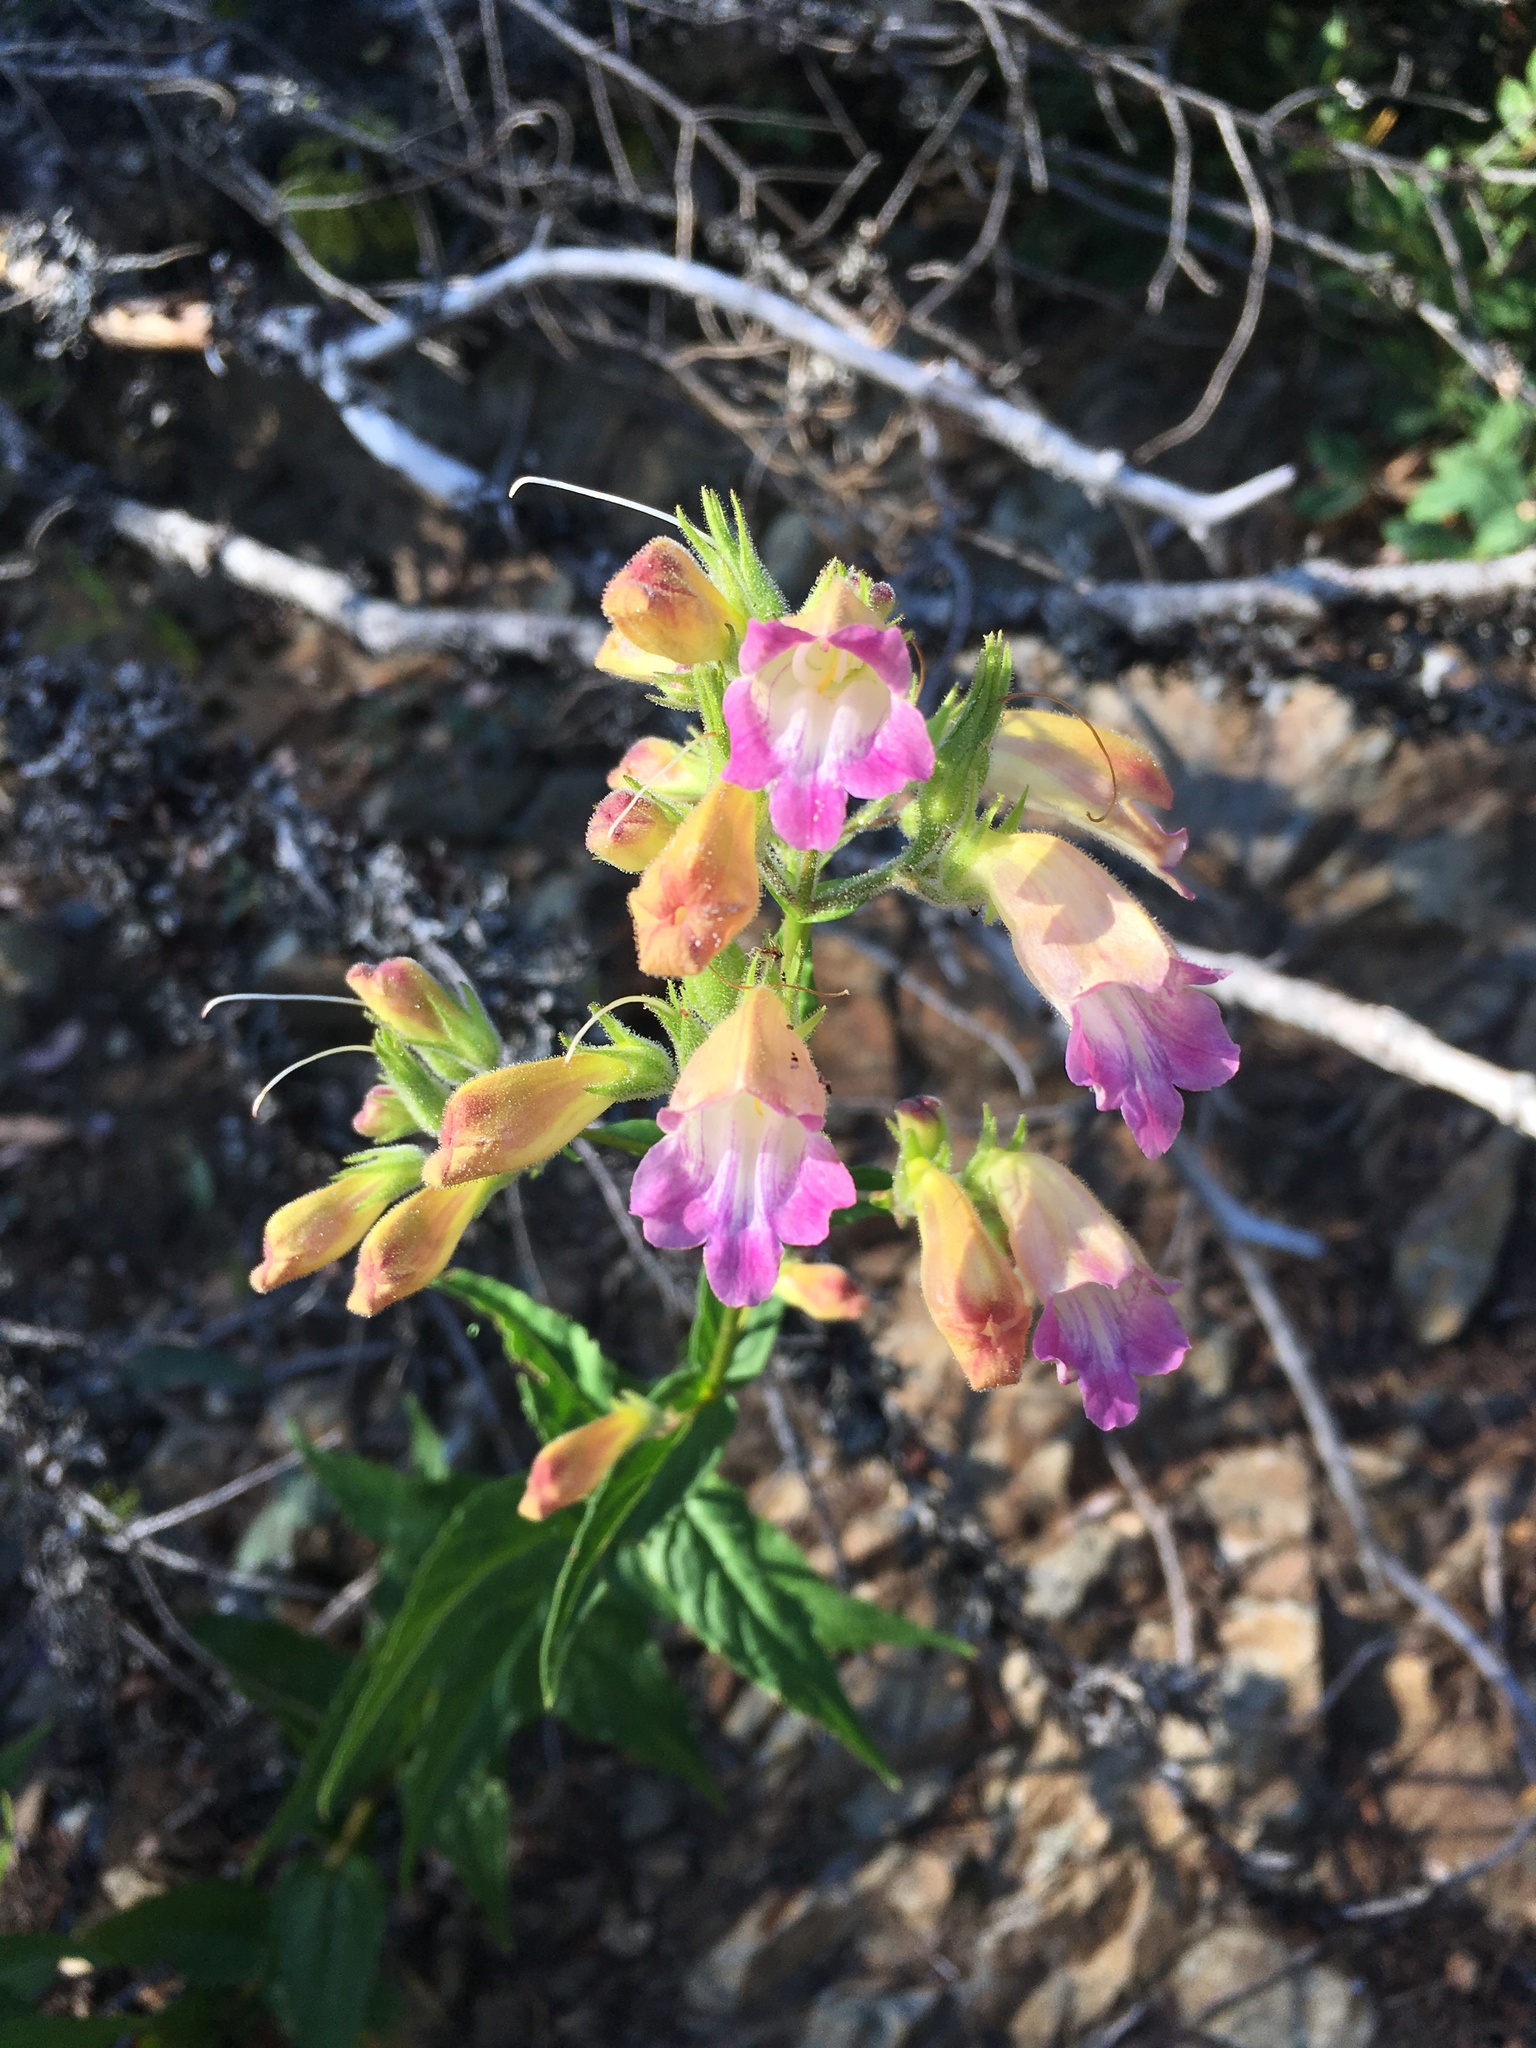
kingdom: Plantae
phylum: Tracheophyta
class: Magnoliopsida
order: Lamiales
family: Plantaginaceae
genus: Nothochelone
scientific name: Nothochelone nemorosa
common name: Woodland beardtongue
